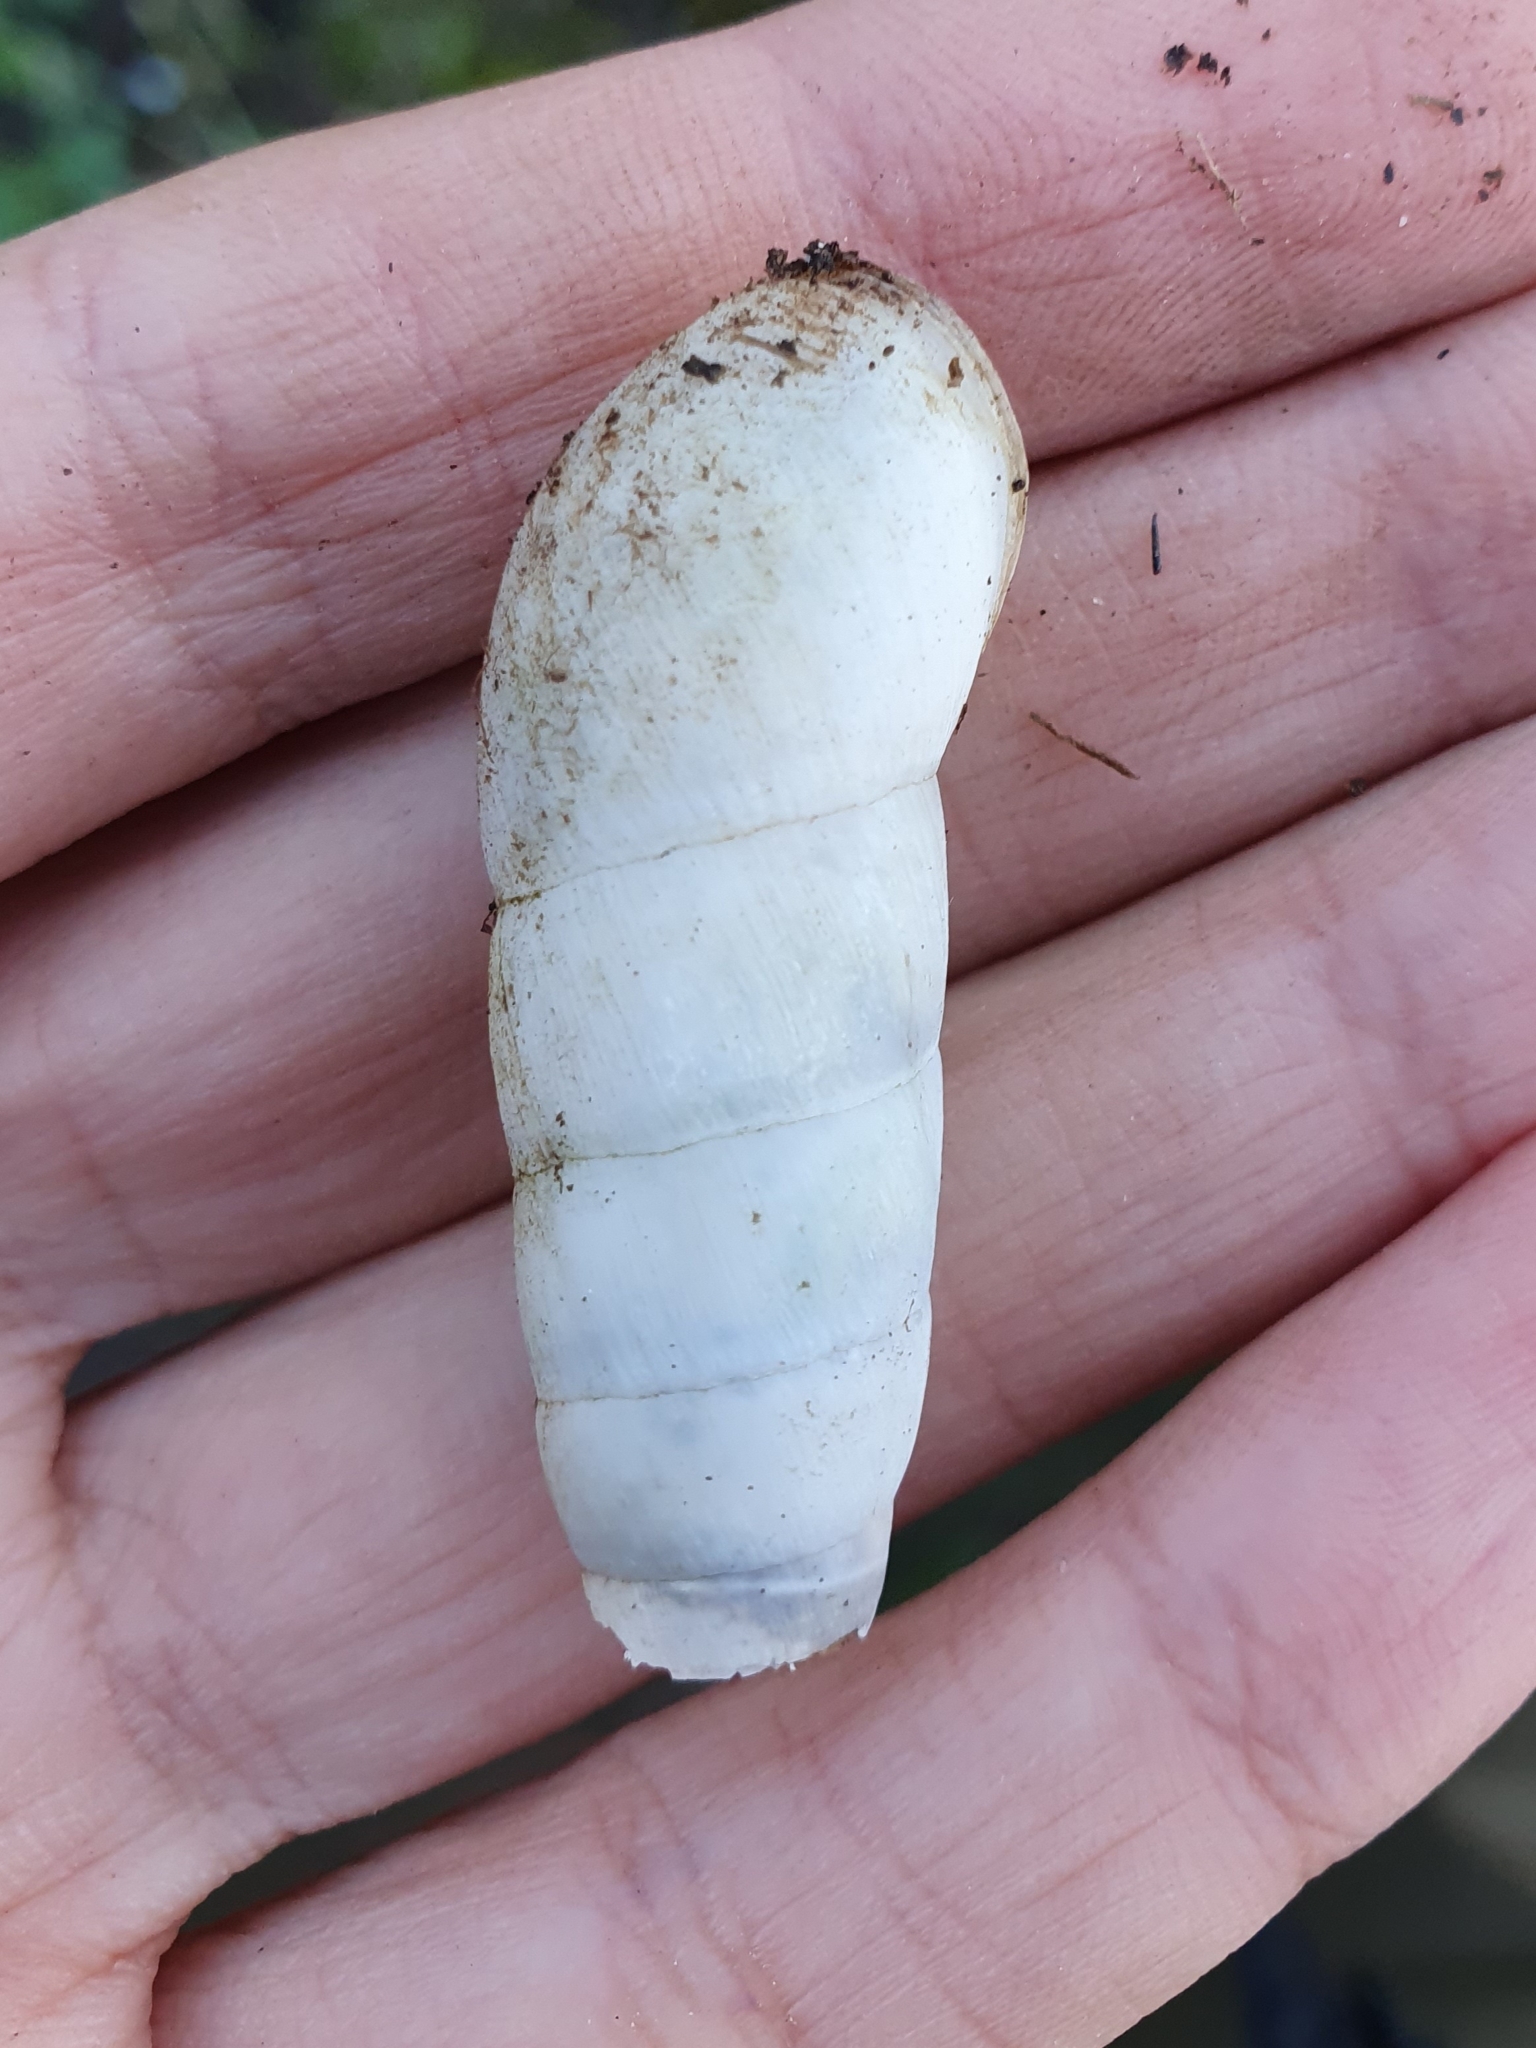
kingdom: Animalia
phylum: Mollusca
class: Gastropoda
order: Stylommatophora
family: Achatinidae
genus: Rumina
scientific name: Rumina decollata
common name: Decollate snail
